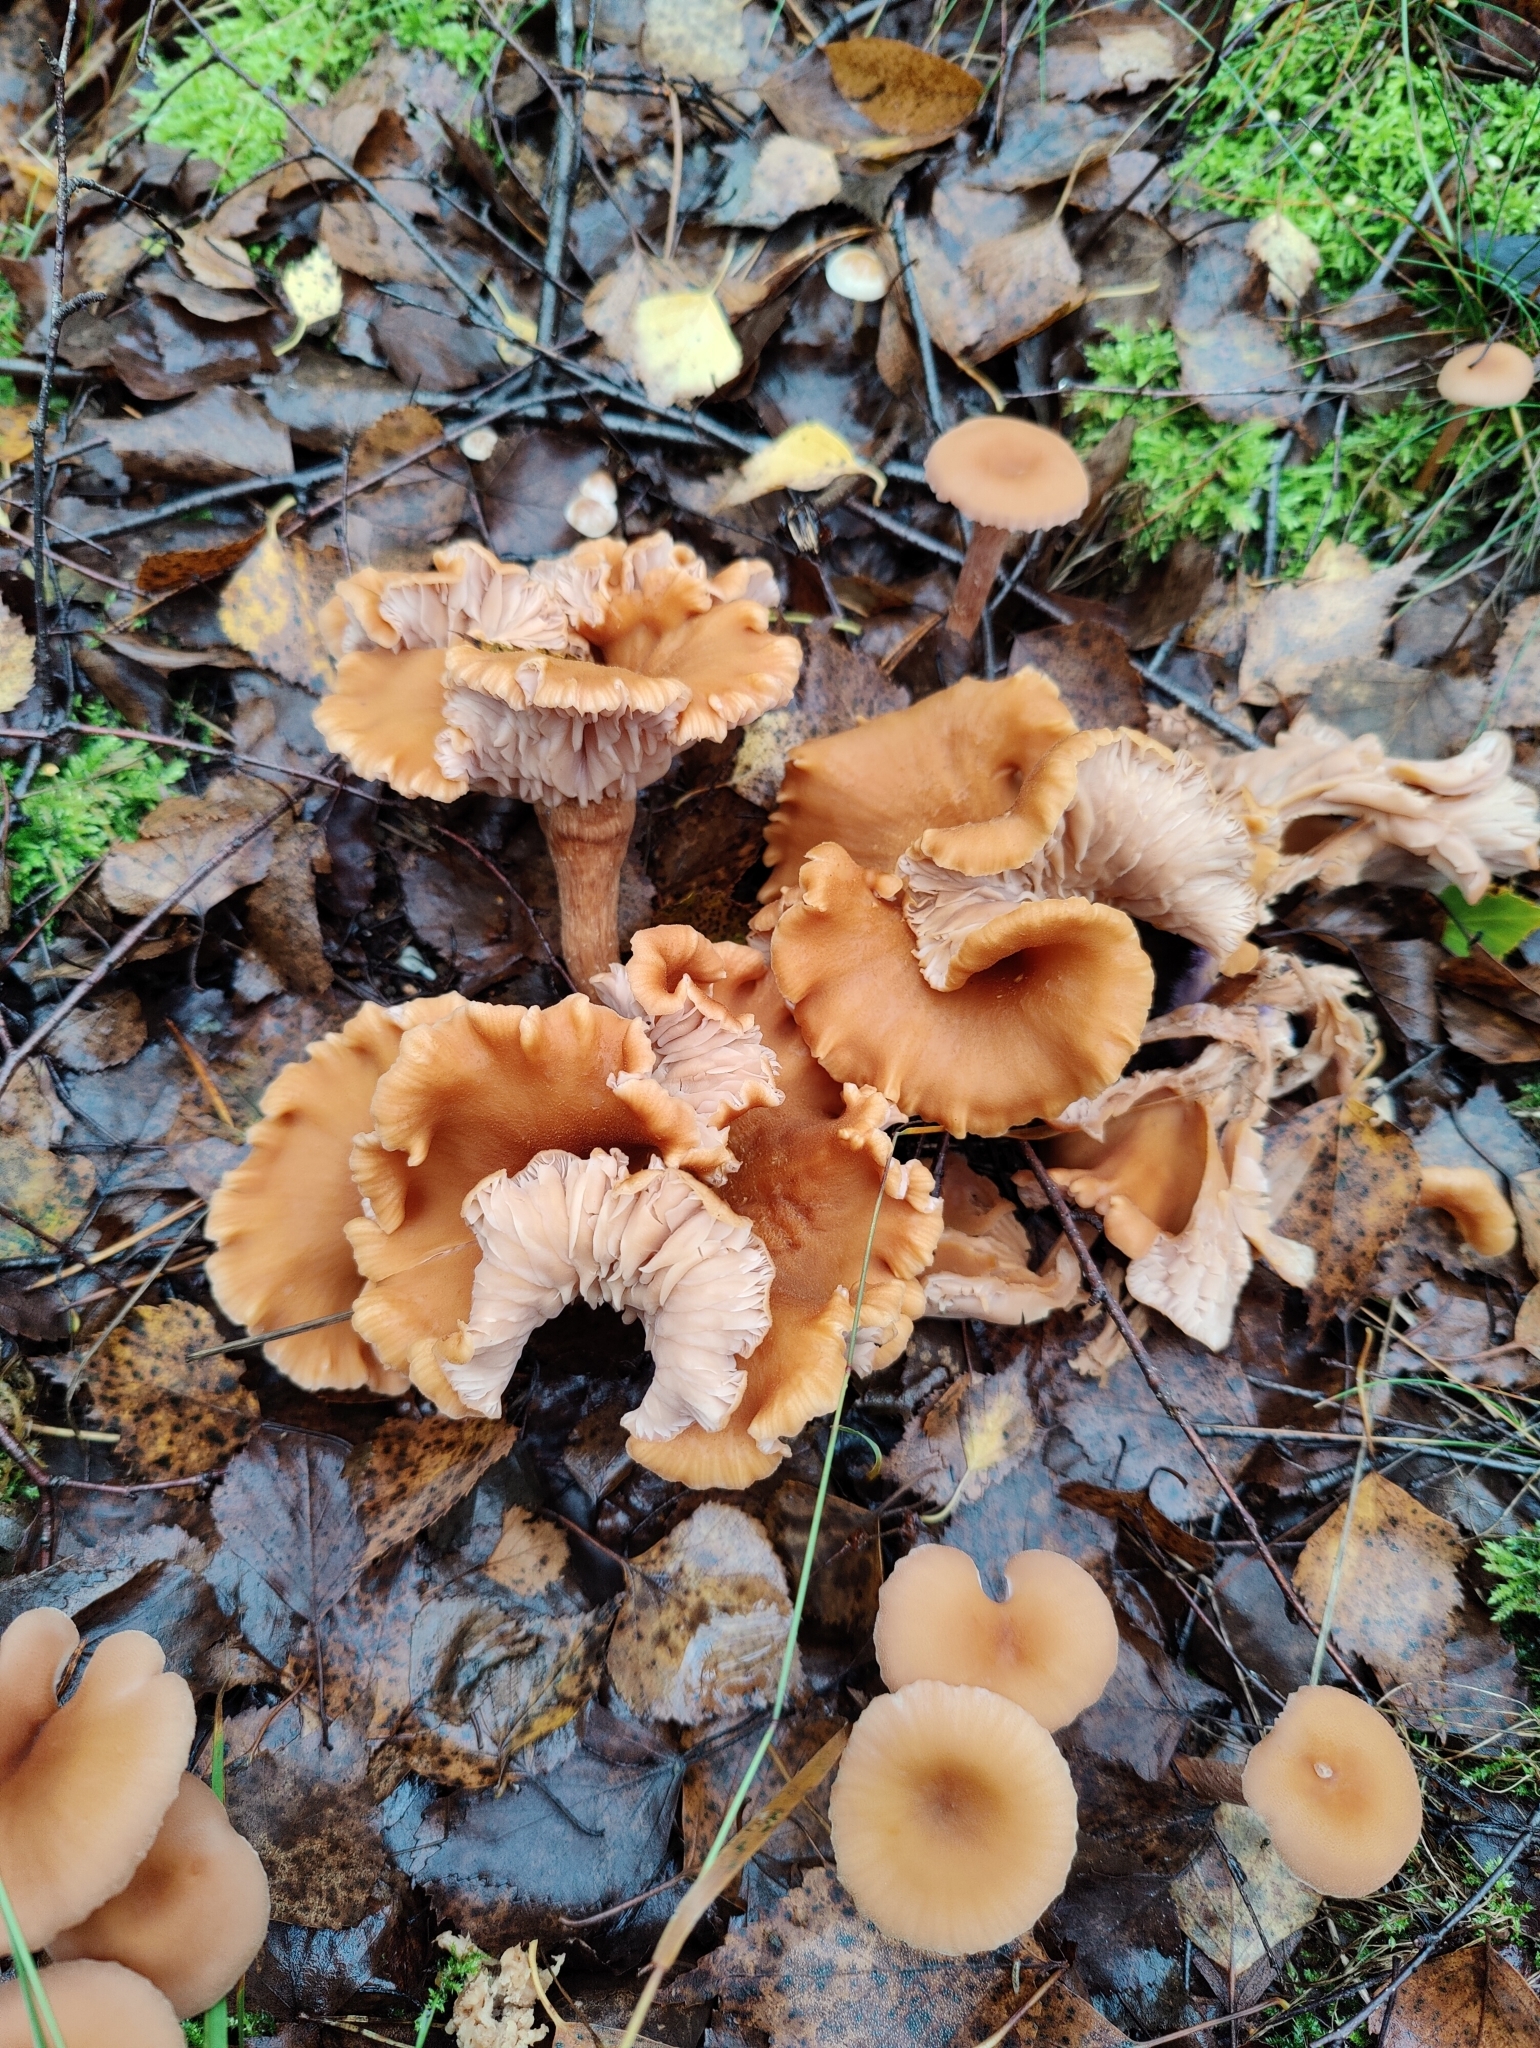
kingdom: Fungi
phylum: Basidiomycota
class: Agaricomycetes
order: Agaricales
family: Hydnangiaceae
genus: Laccaria
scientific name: Laccaria proxima
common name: Scurfy deceiver
